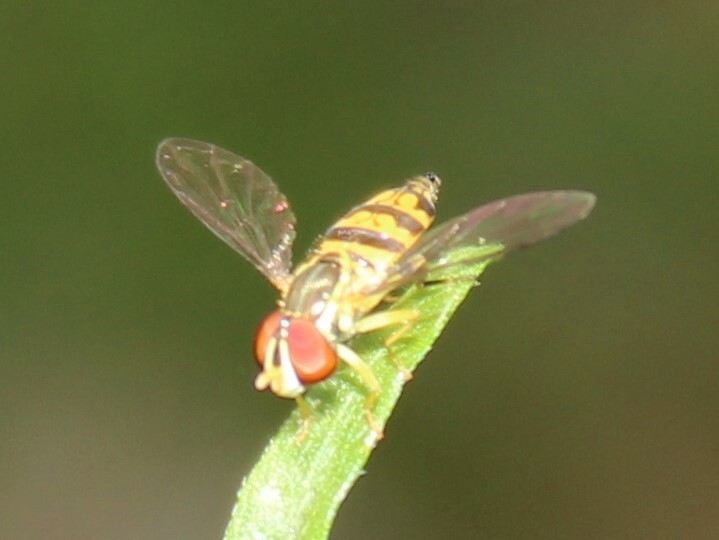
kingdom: Animalia
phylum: Arthropoda
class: Insecta
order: Diptera
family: Syrphidae
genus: Toxomerus
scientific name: Toxomerus geminatus
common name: Eastern calligrapher
